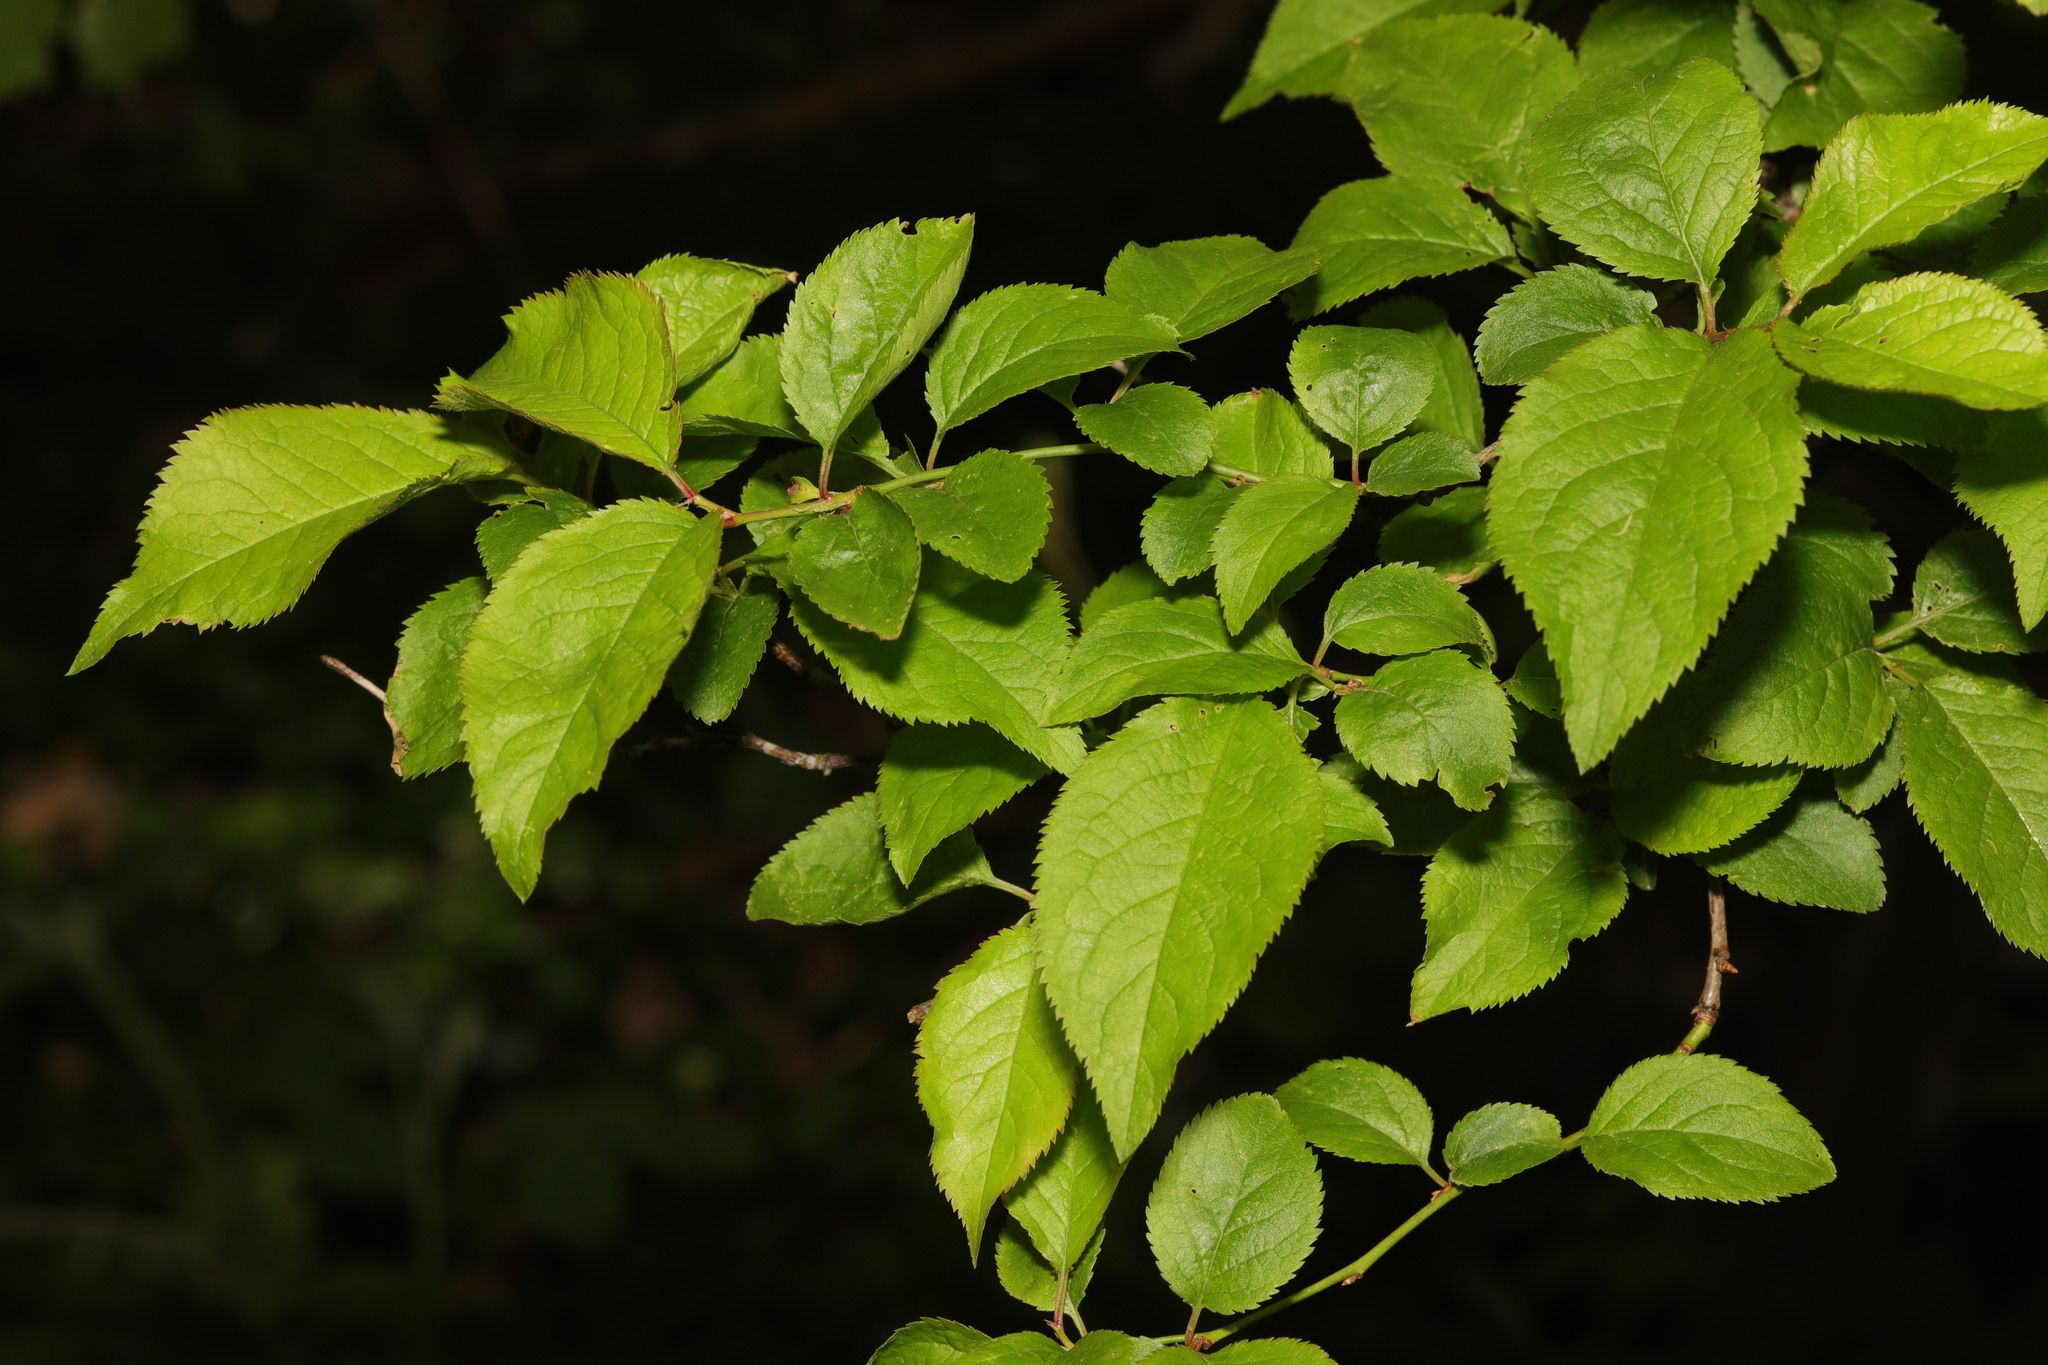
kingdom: Plantae
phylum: Tracheophyta
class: Magnoliopsida
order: Rosales
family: Rosaceae
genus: Prunus
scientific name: Prunus cerasifera
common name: Cherry plum
